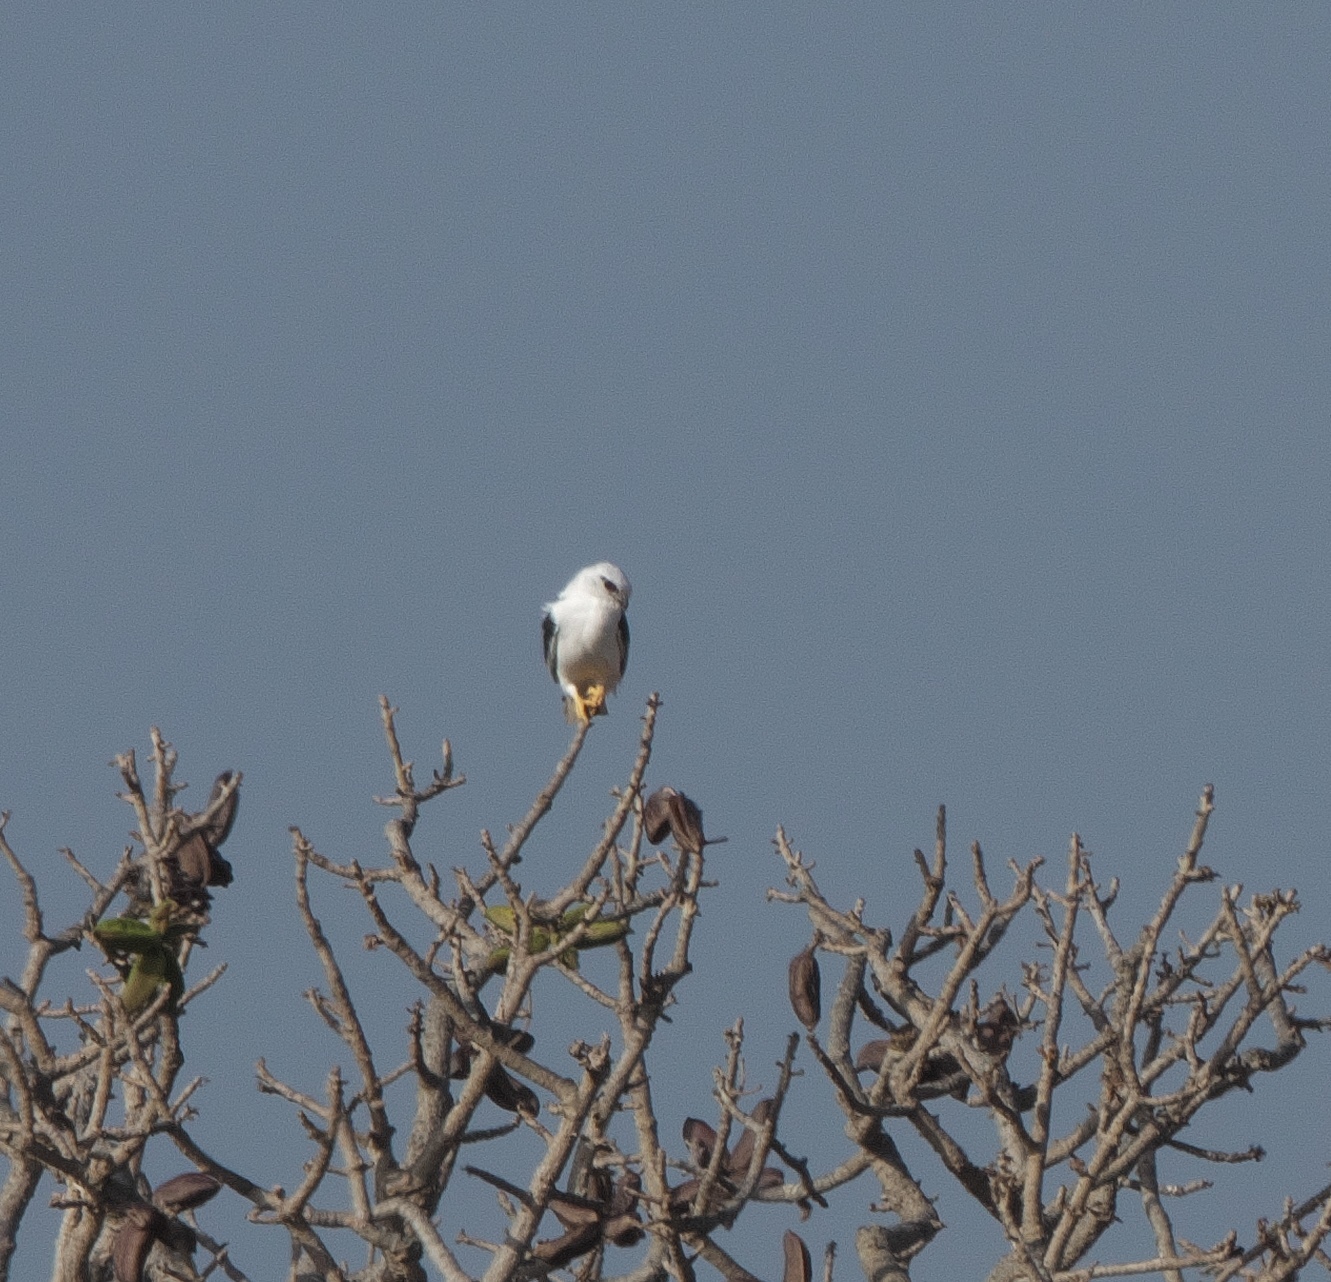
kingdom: Animalia
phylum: Chordata
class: Aves
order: Accipitriformes
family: Accipitridae
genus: Elanus
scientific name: Elanus axillaris
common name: Black-shouldered kite
